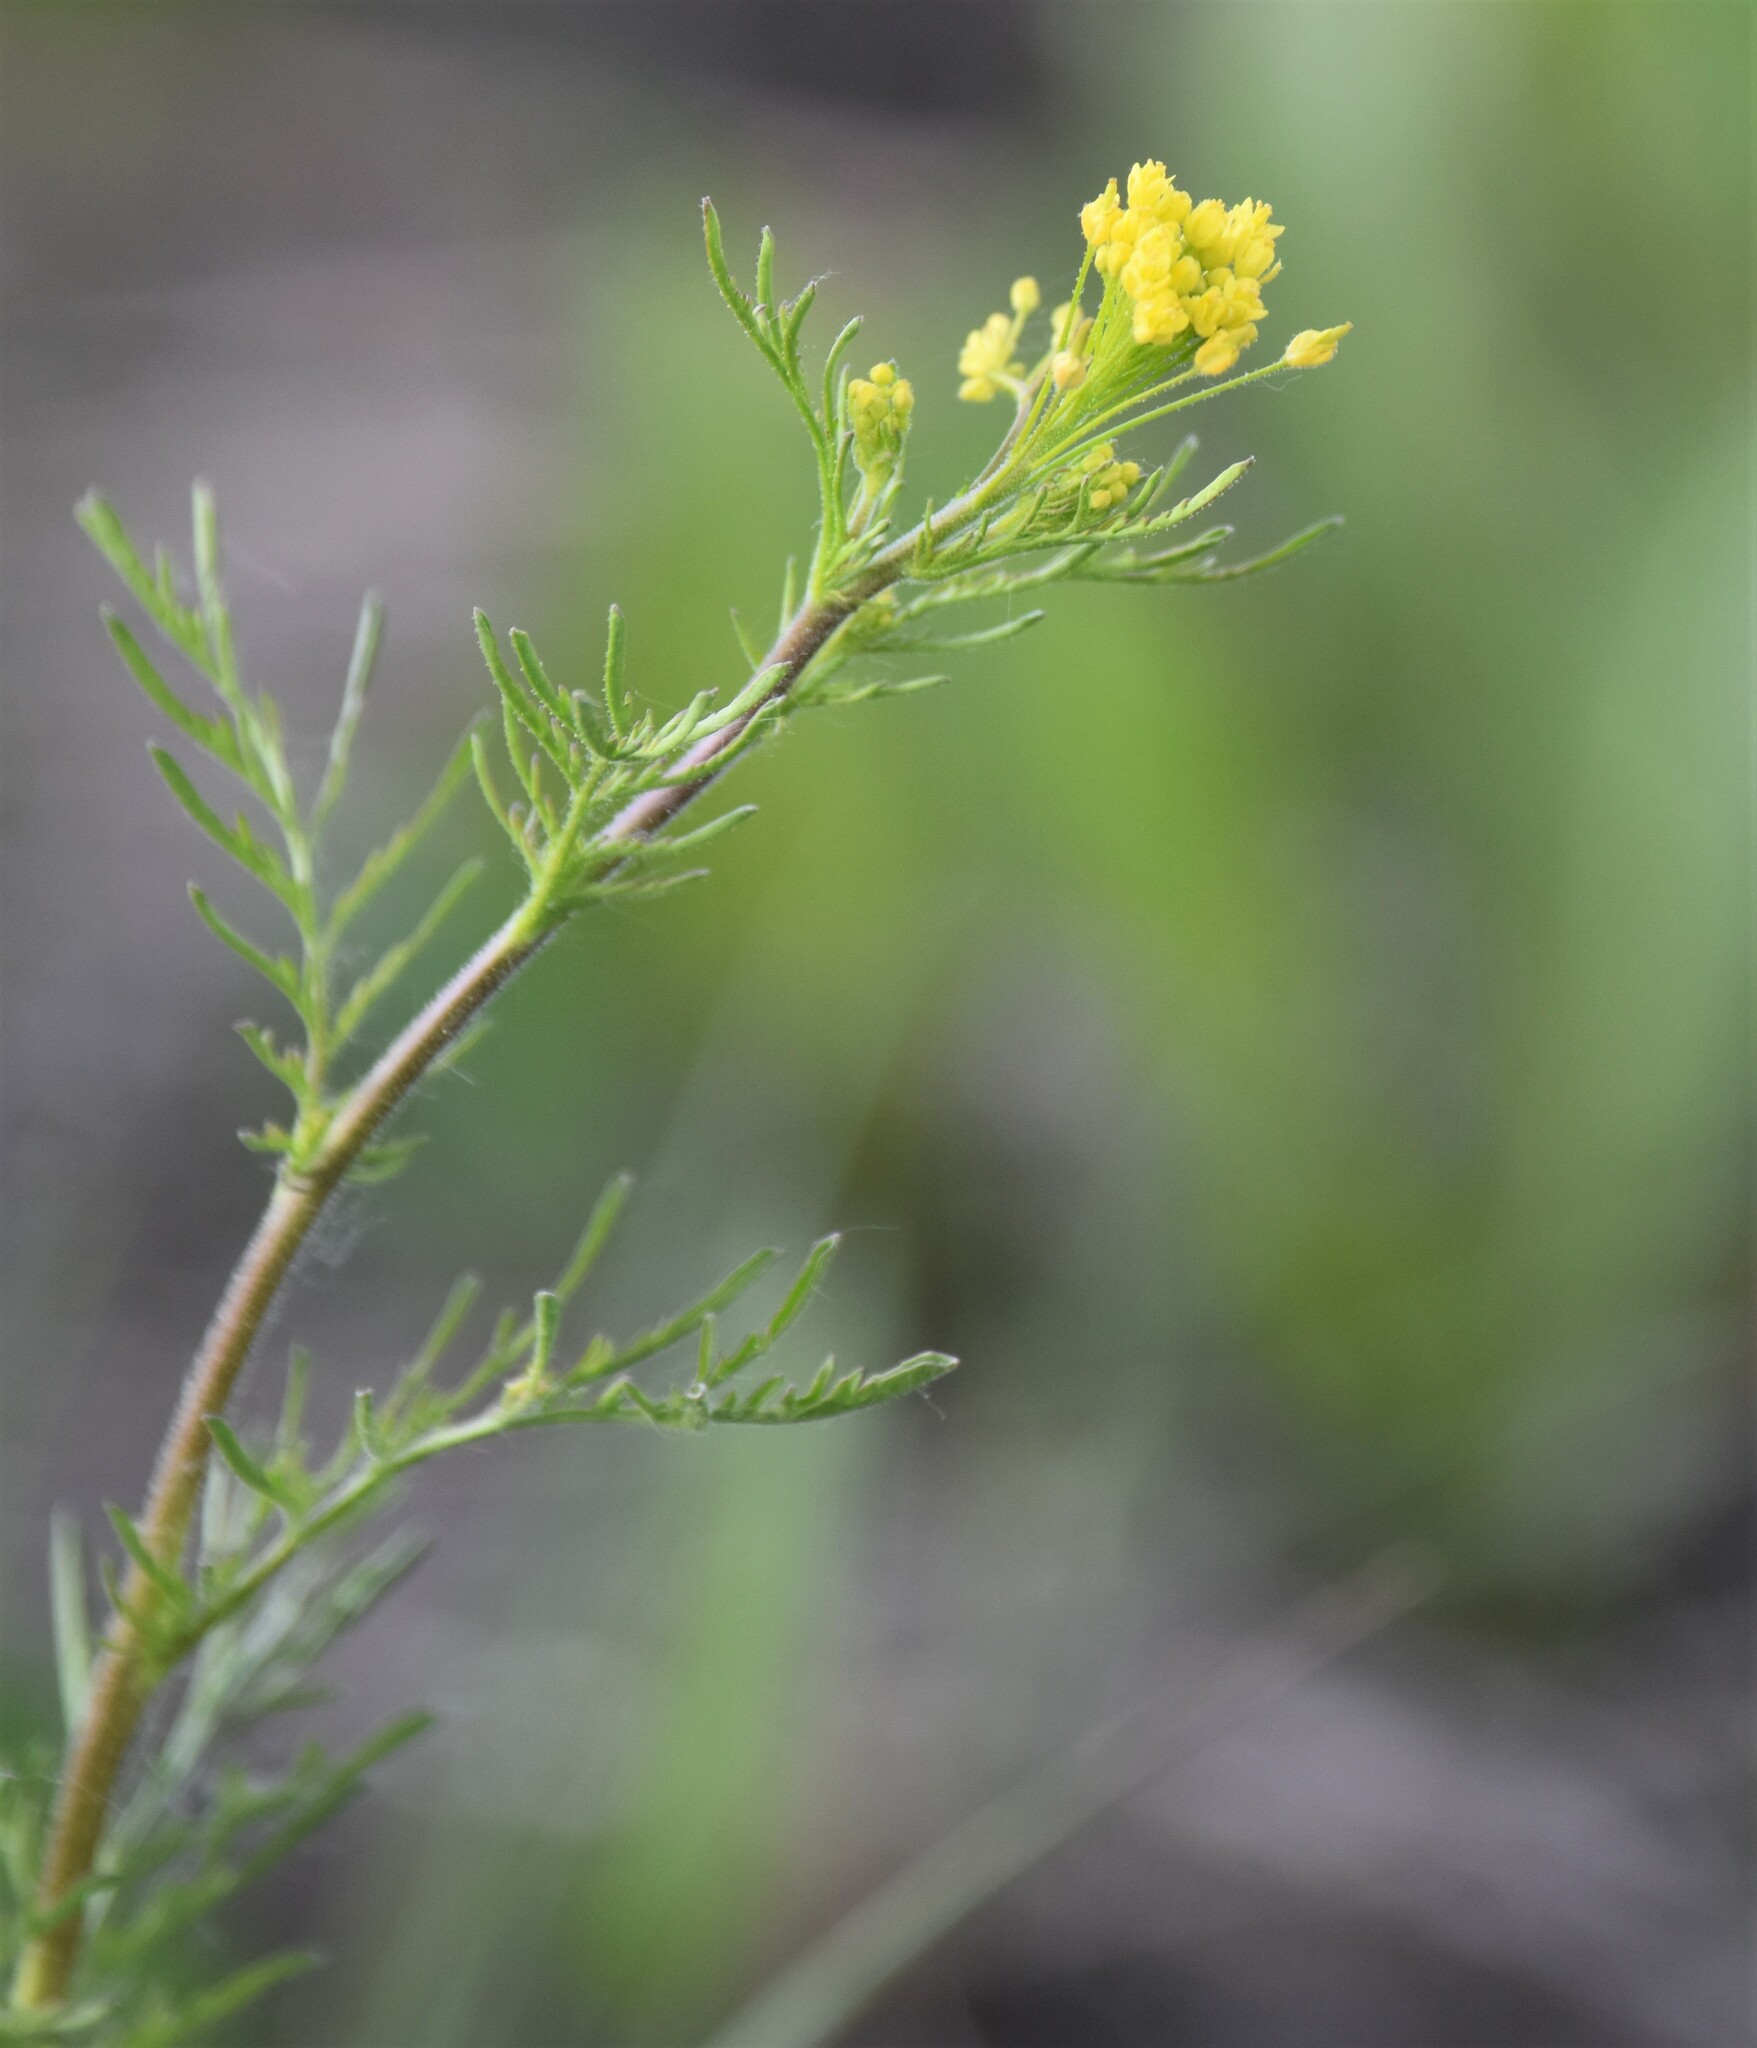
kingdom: Plantae
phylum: Tracheophyta
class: Magnoliopsida
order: Brassicales
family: Brassicaceae
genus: Descurainia
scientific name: Descurainia sophia
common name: Flixweed
